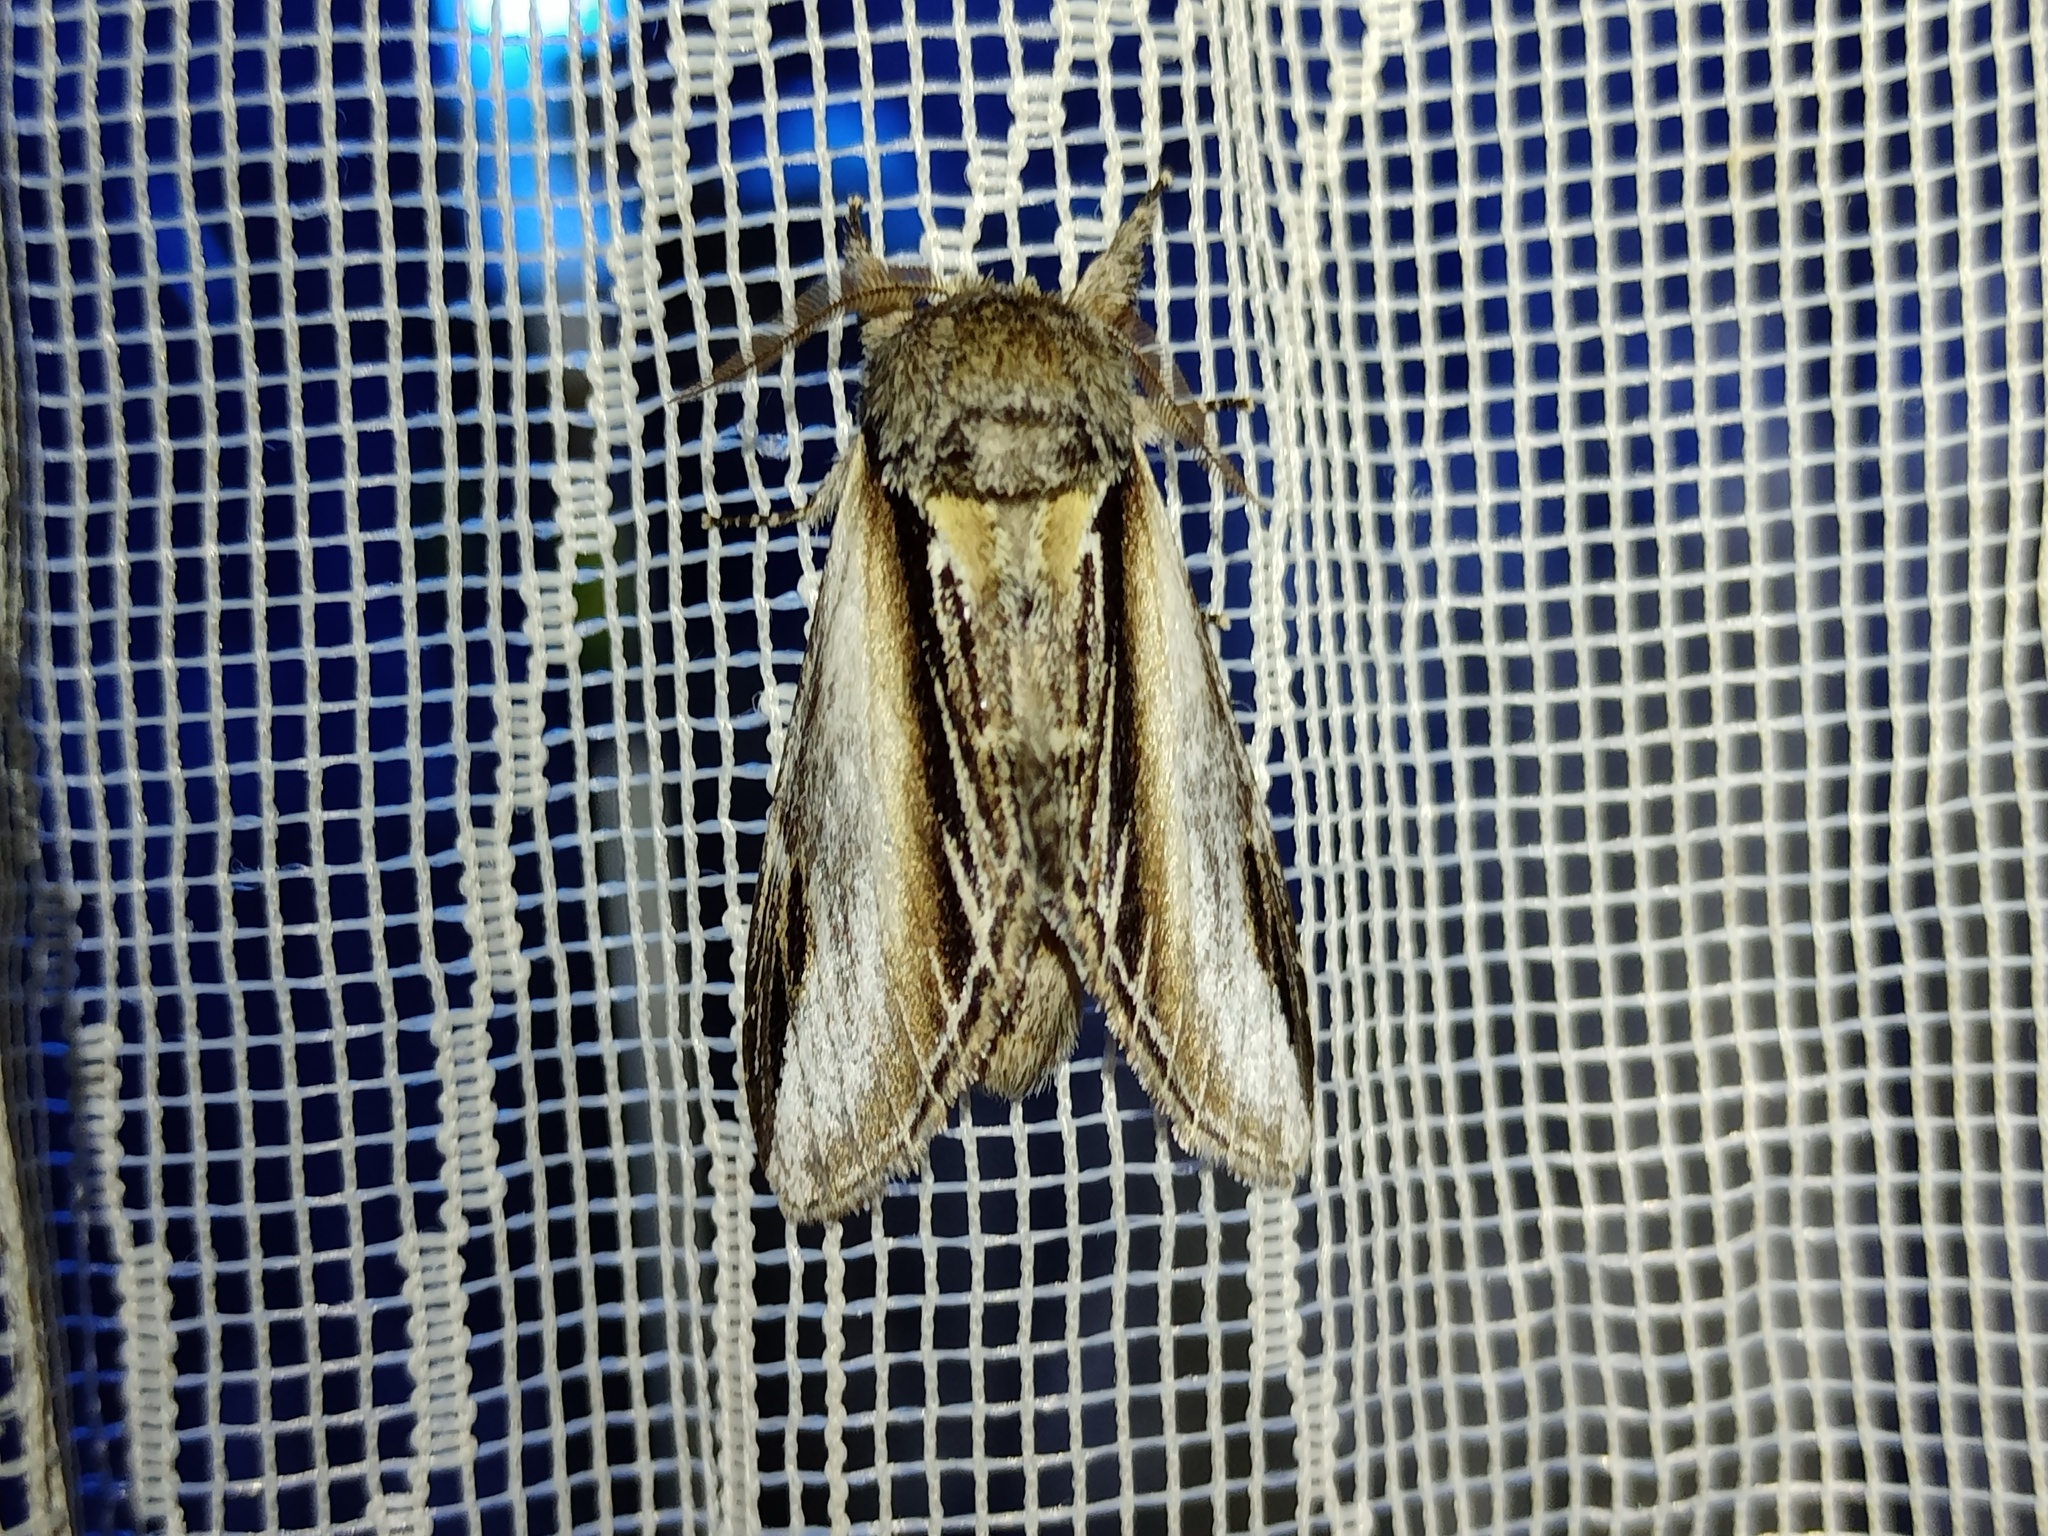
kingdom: Animalia
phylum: Arthropoda
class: Insecta
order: Lepidoptera
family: Notodontidae
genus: Pheosia
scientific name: Pheosia tremula
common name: Swallow prominent
